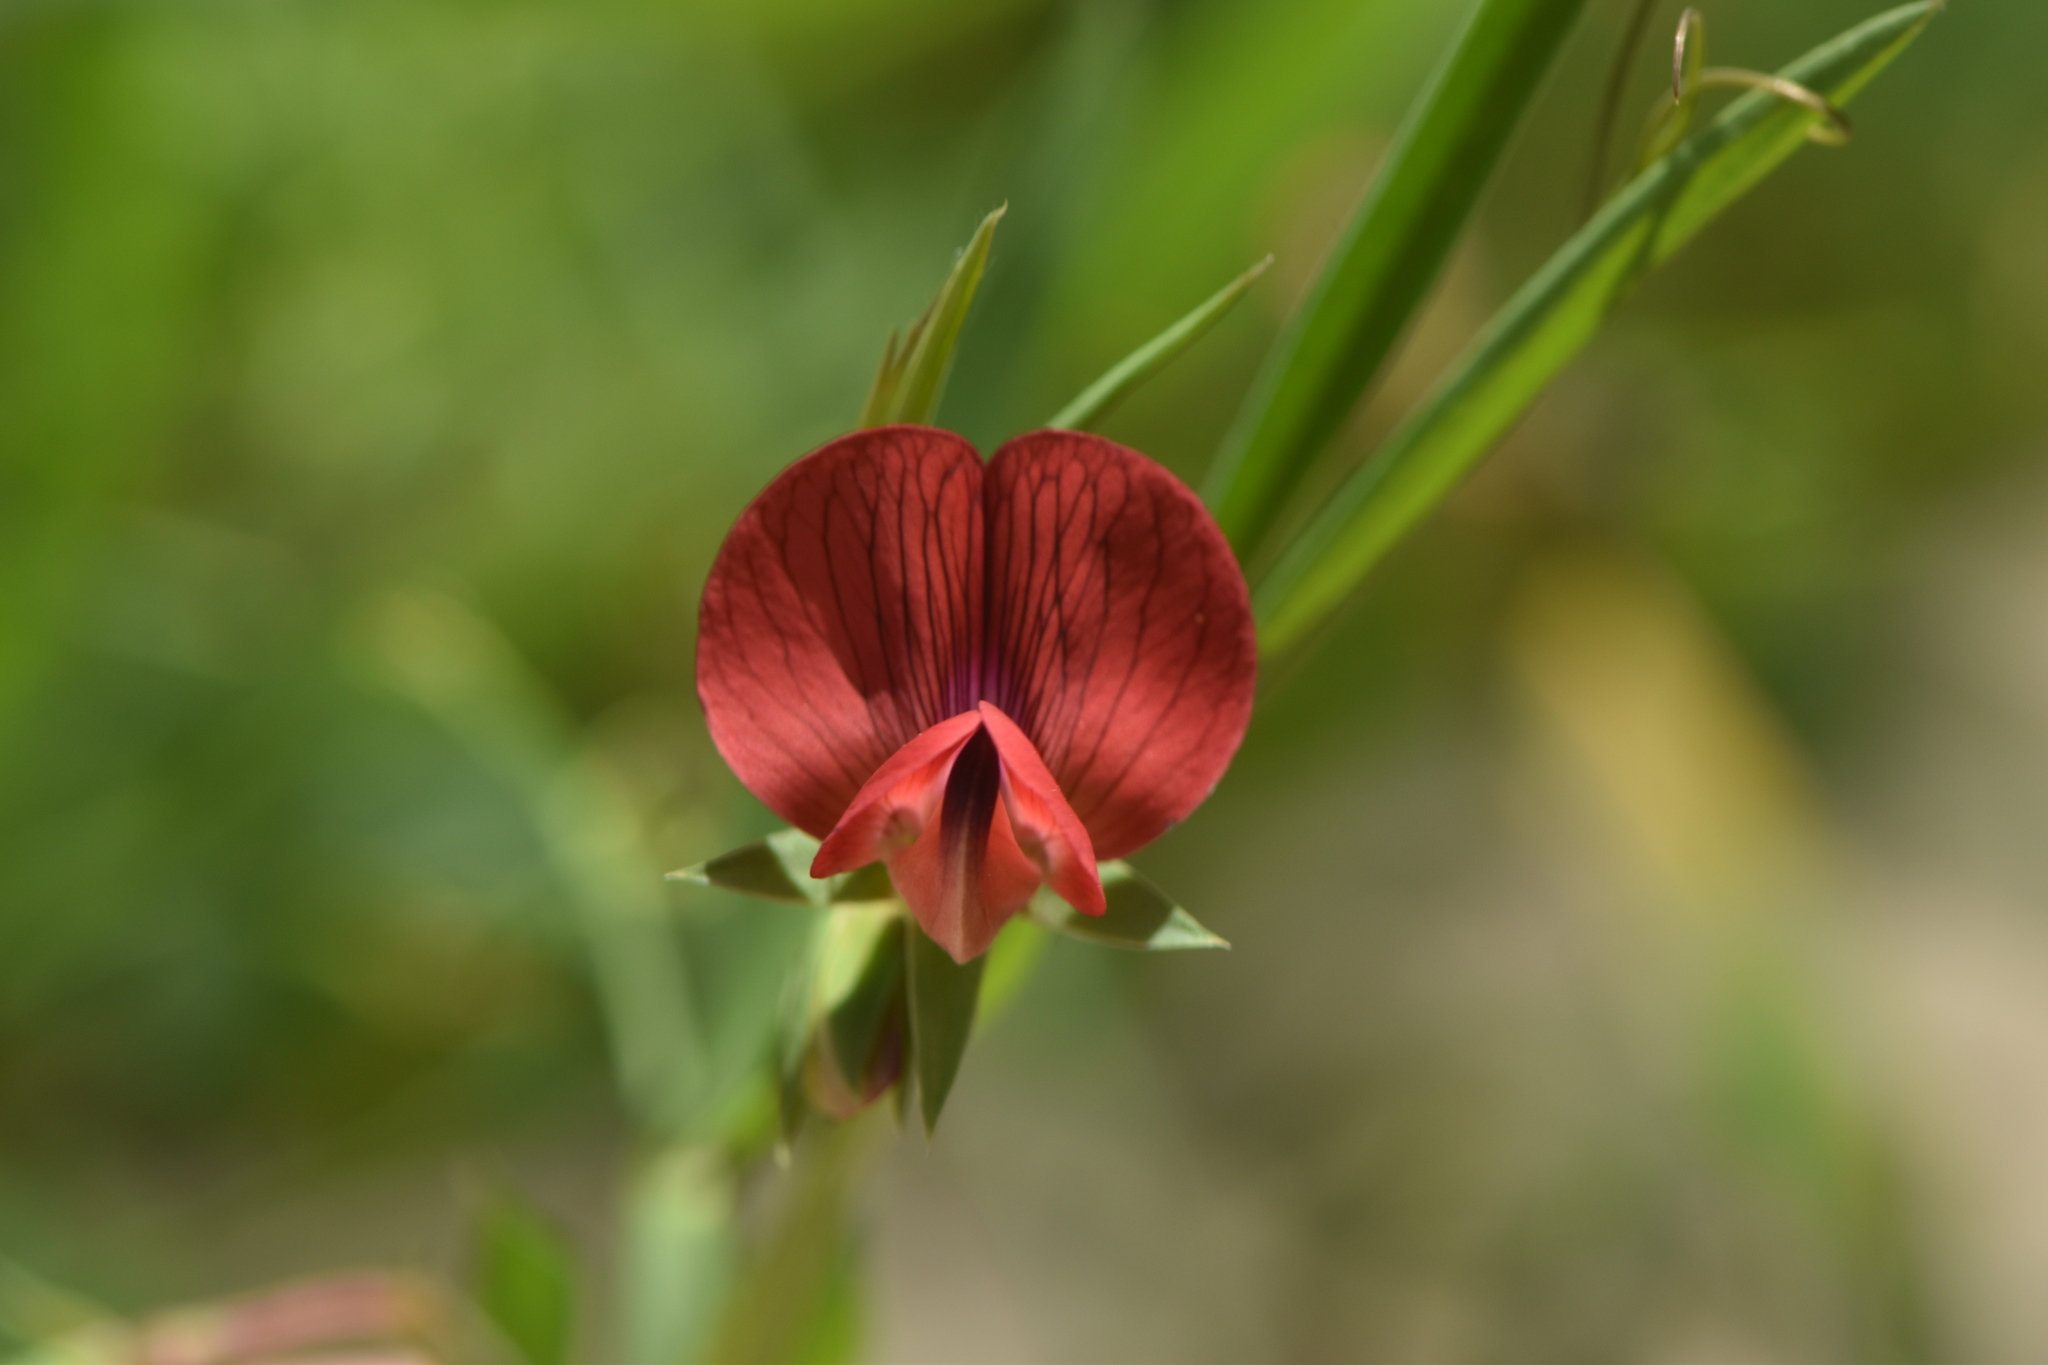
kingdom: Plantae
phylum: Tracheophyta
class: Magnoliopsida
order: Fabales
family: Fabaceae
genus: Lathyrus
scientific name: Lathyrus cicera
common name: Red vetchling
